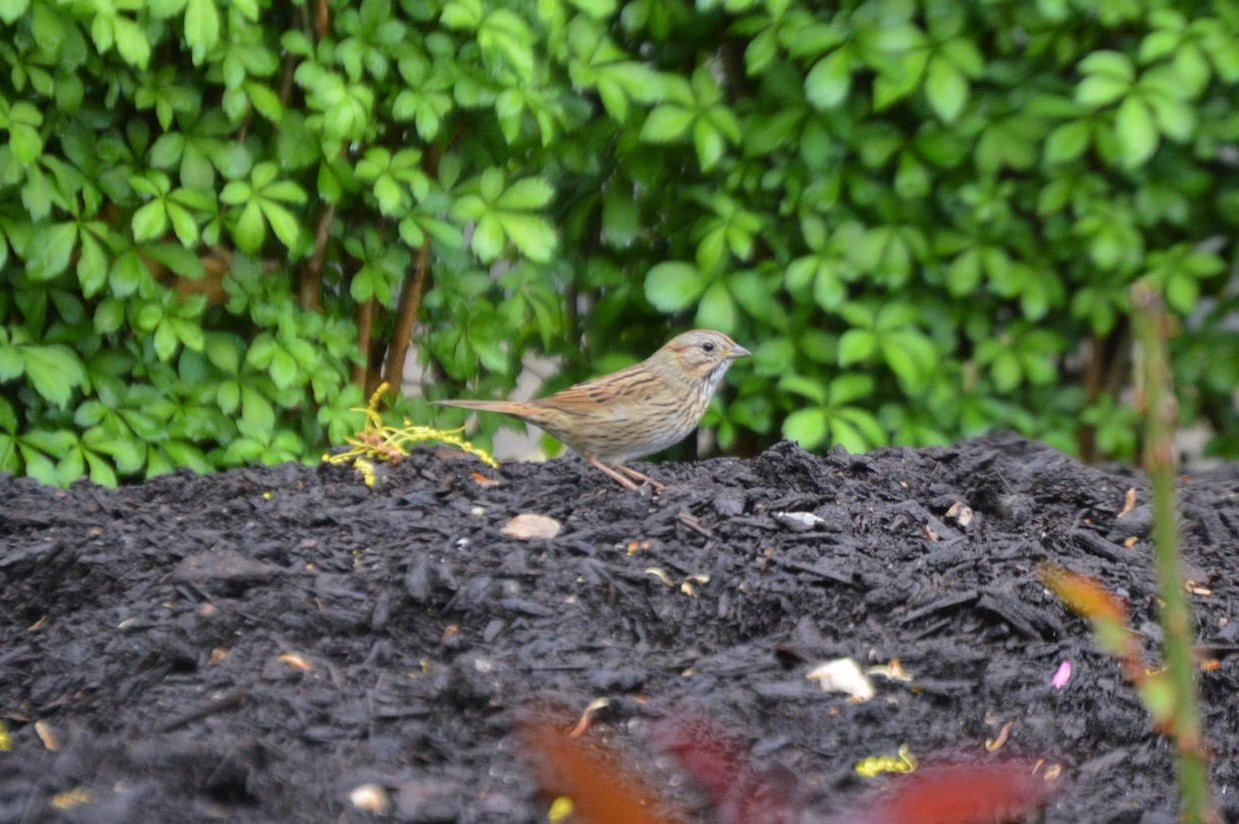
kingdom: Animalia
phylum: Chordata
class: Aves
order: Passeriformes
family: Passerellidae
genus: Melospiza
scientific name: Melospiza lincolnii
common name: Lincoln's sparrow
